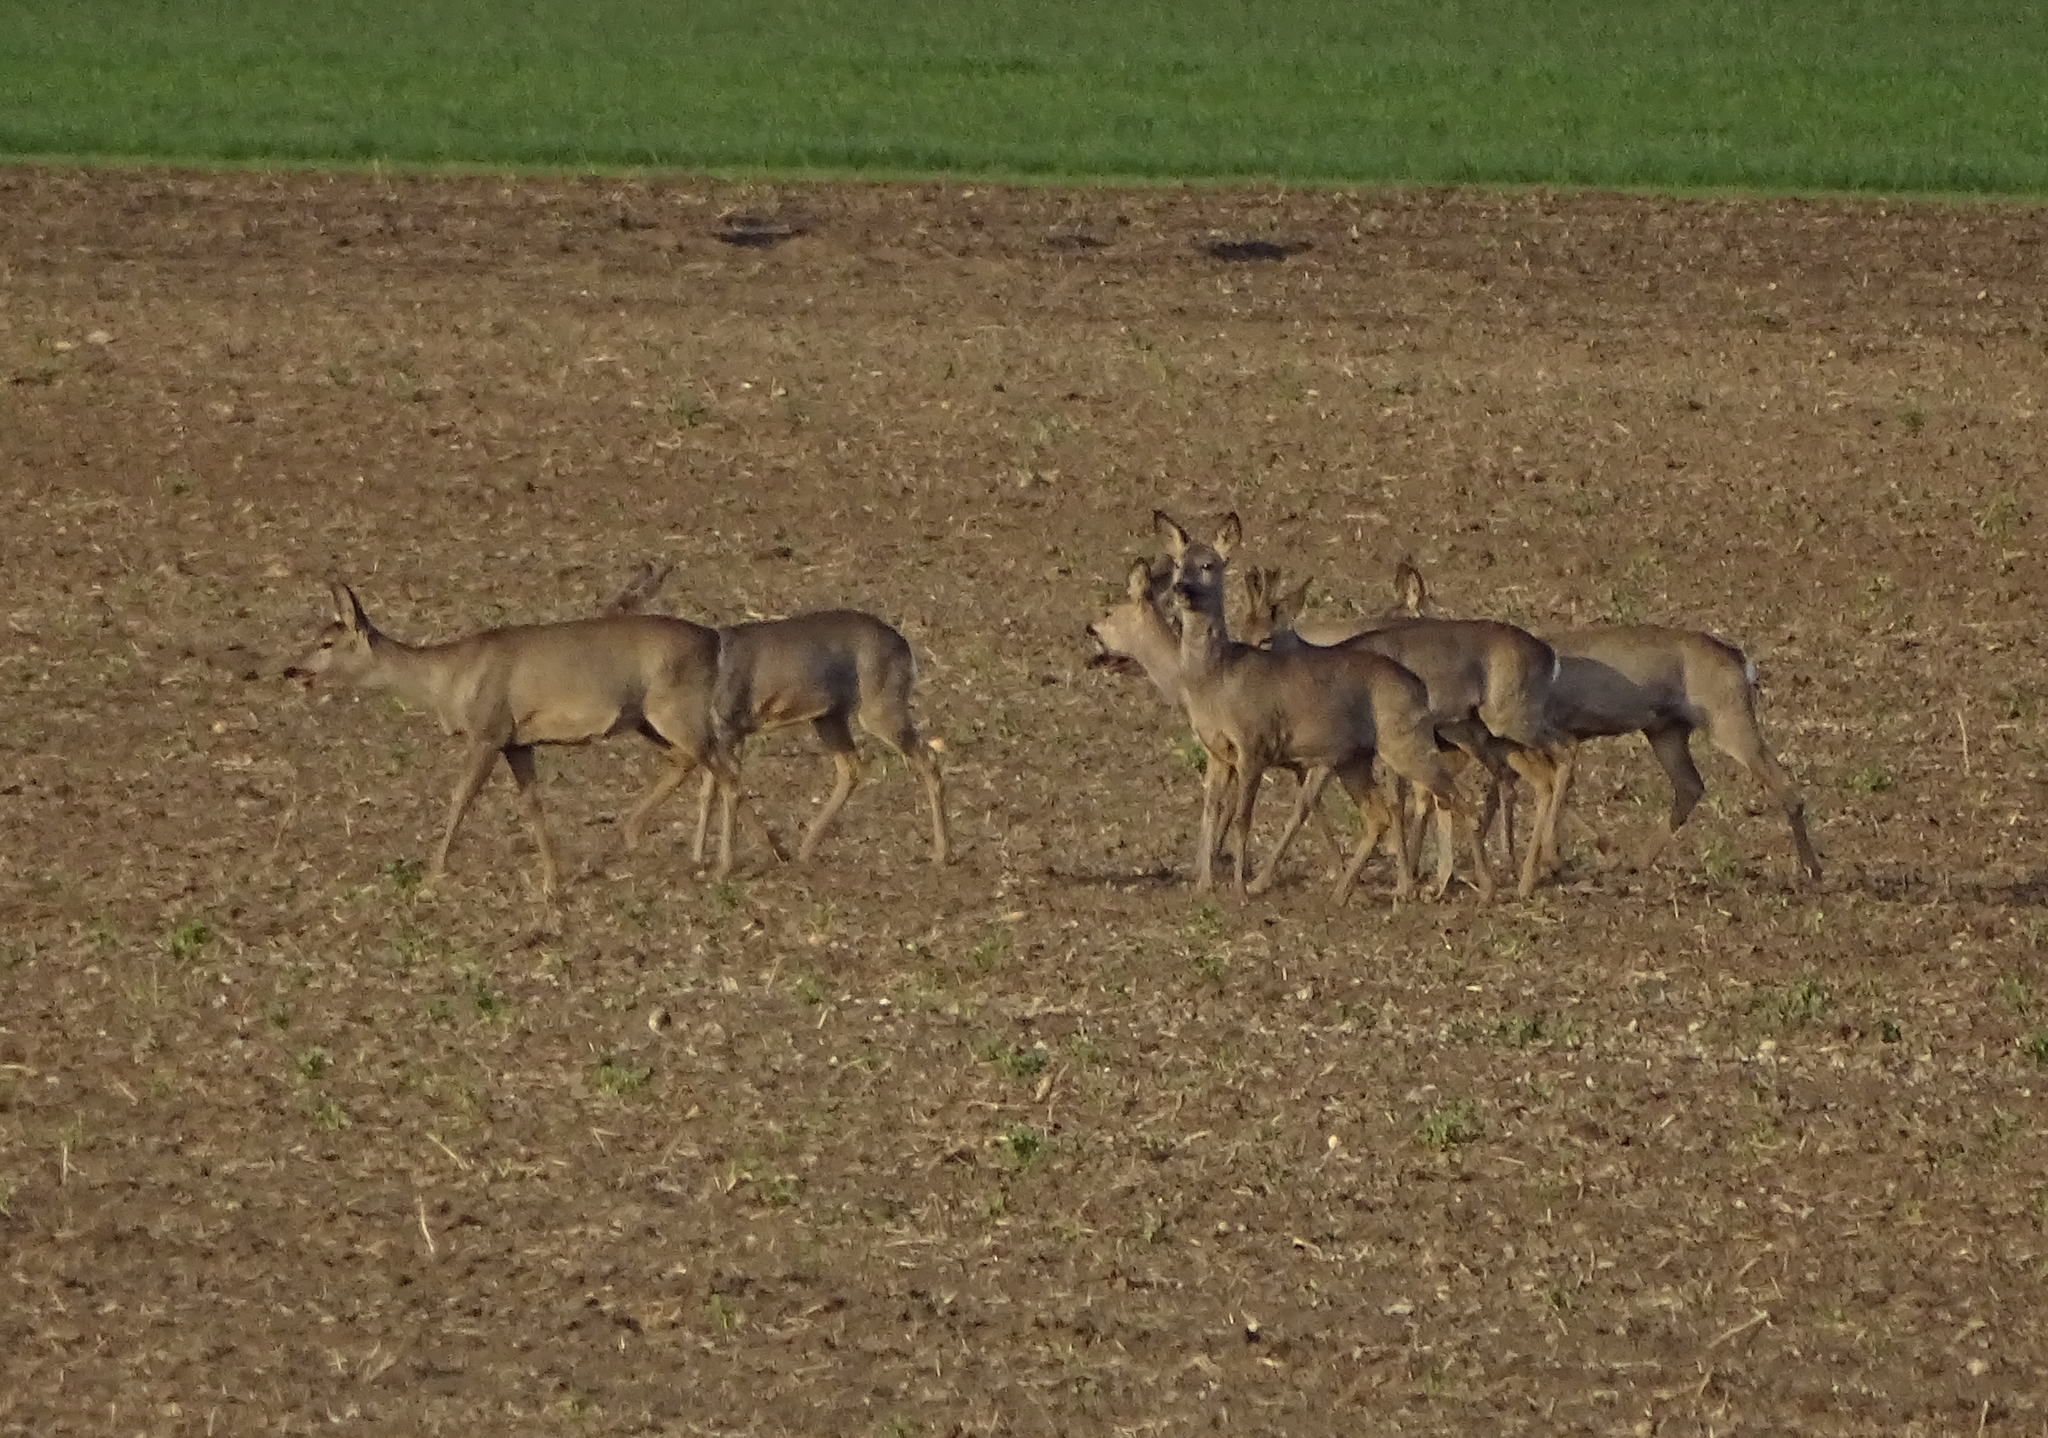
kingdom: Animalia
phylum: Chordata
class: Mammalia
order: Artiodactyla
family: Cervidae
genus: Capreolus
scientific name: Capreolus capreolus
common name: Western roe deer
